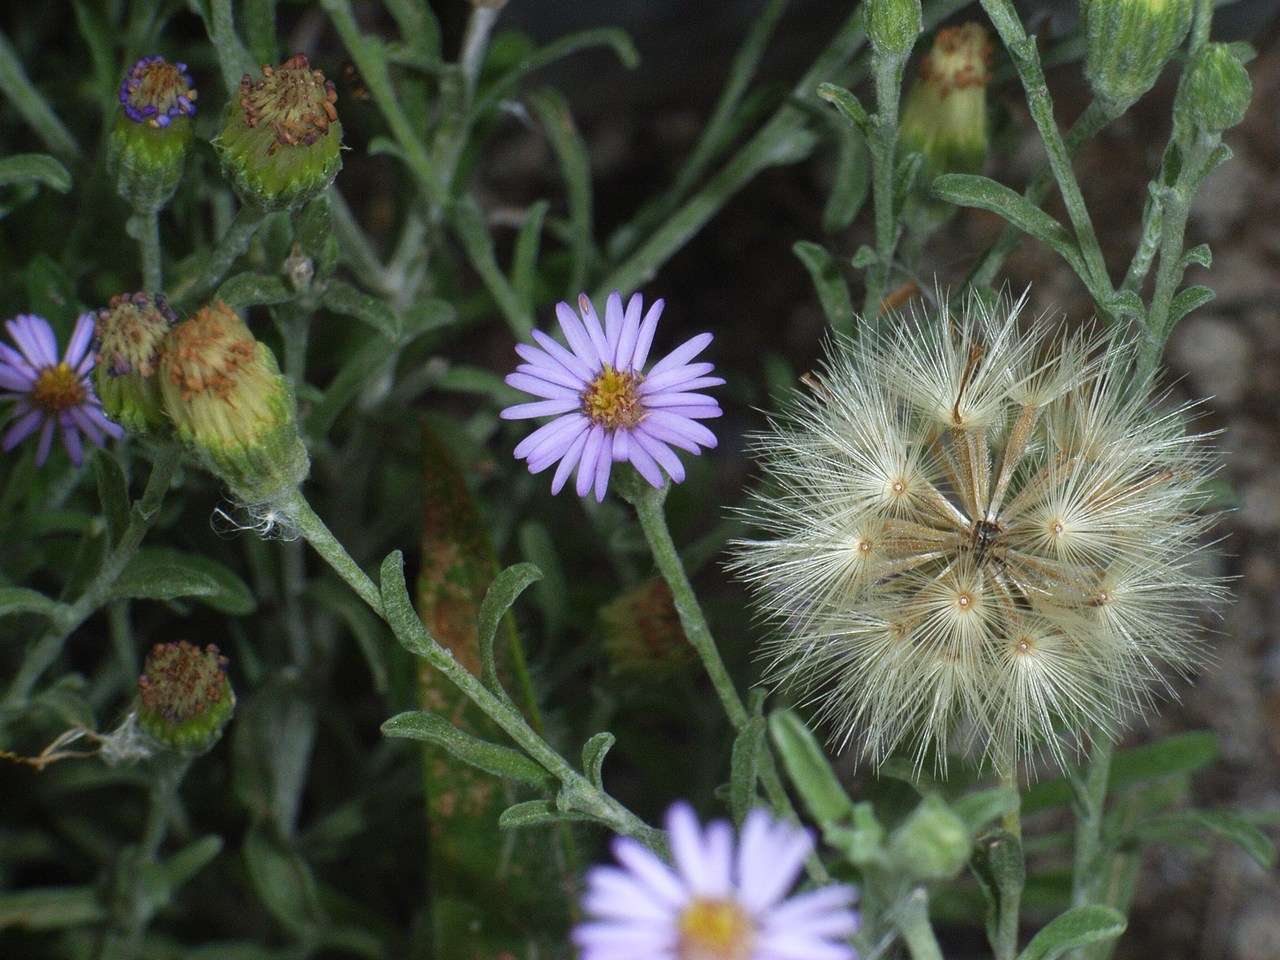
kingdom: Plantae
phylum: Tracheophyta
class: Magnoliopsida
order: Asterales
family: Asteraceae
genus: Vittadinia
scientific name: Vittadinia gracilis
